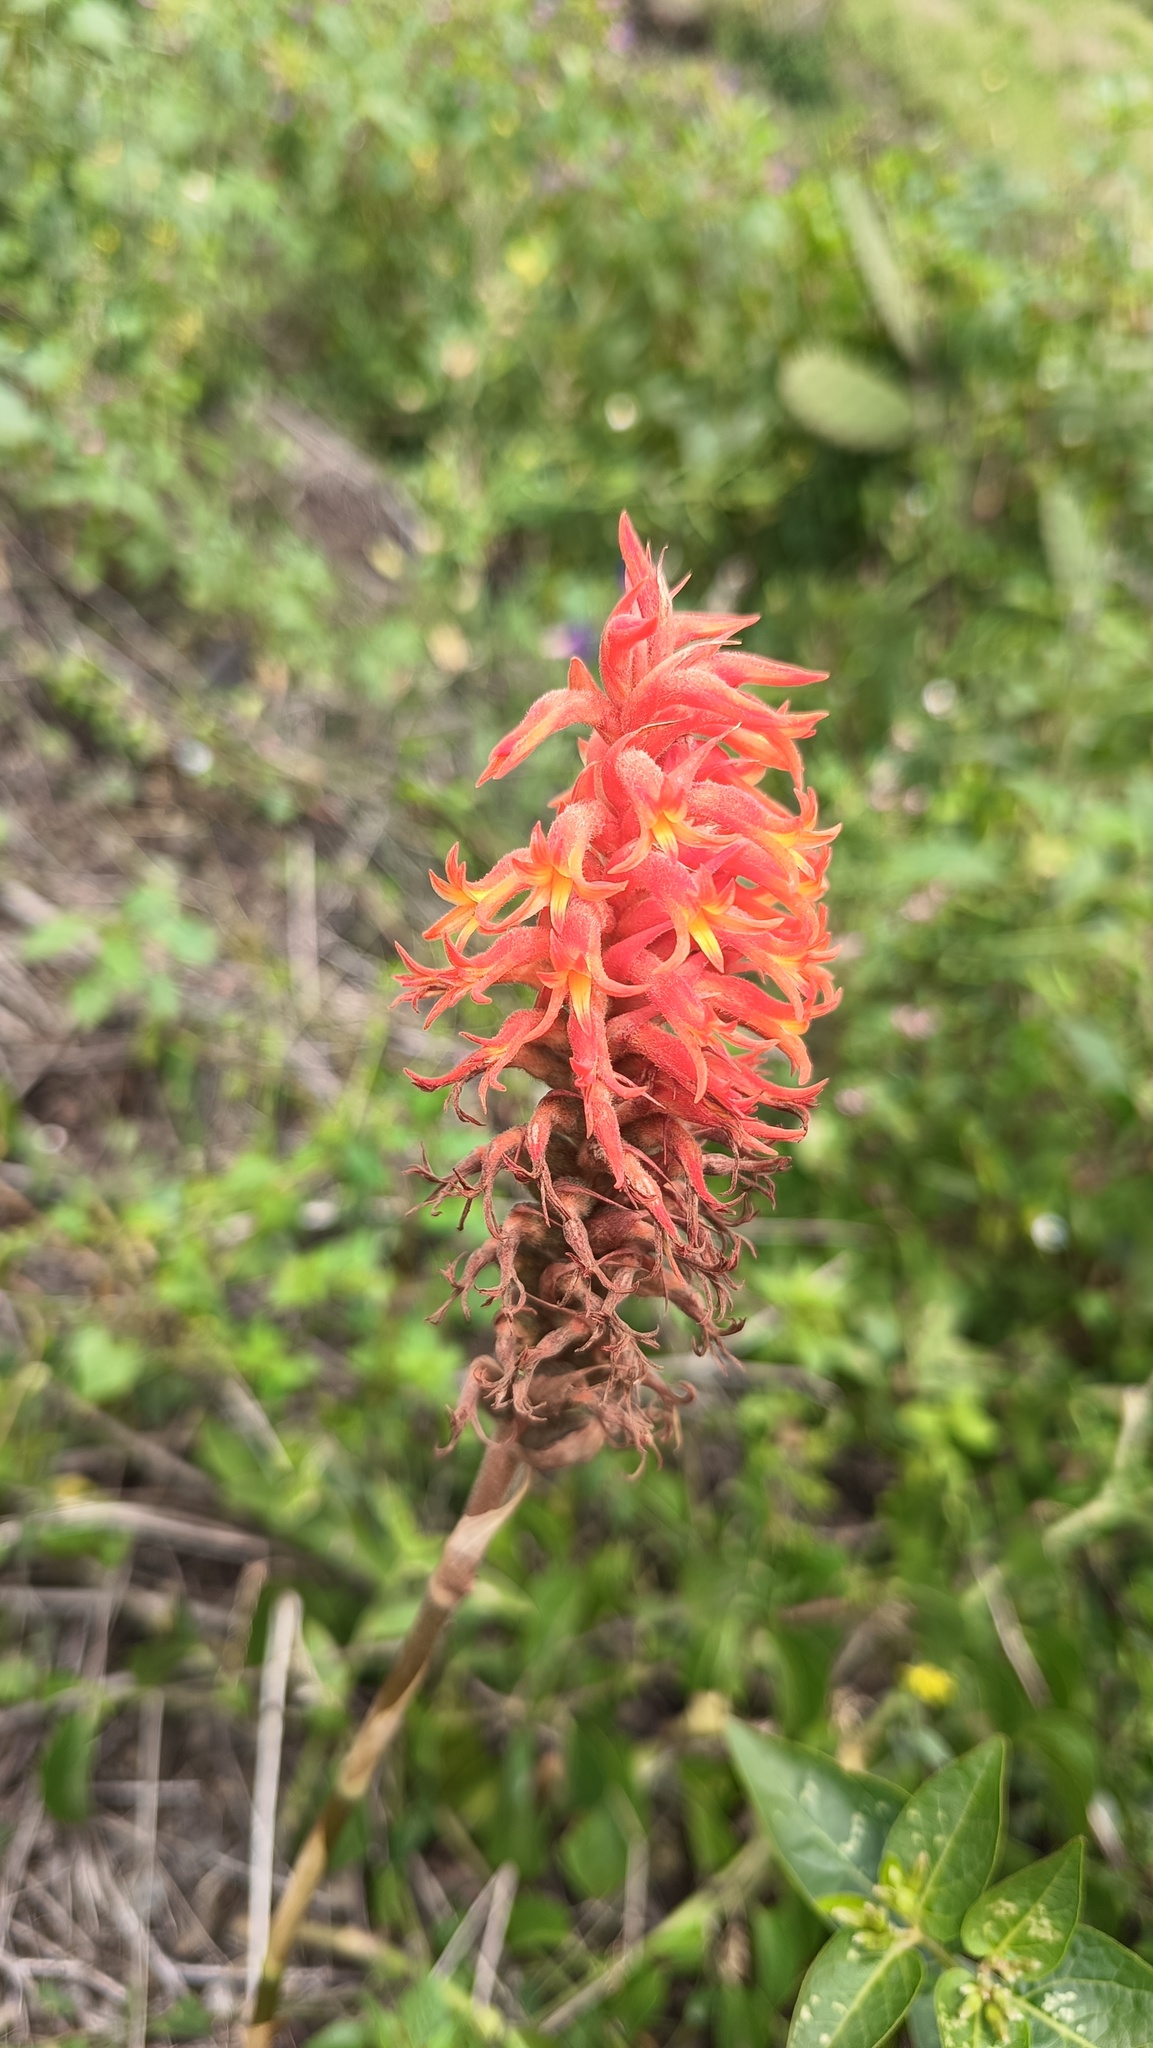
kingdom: Plantae
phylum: Tracheophyta
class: Liliopsida
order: Asparagales
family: Orchidaceae
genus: Dichromanthus
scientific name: Dichromanthus cinnabarinus
